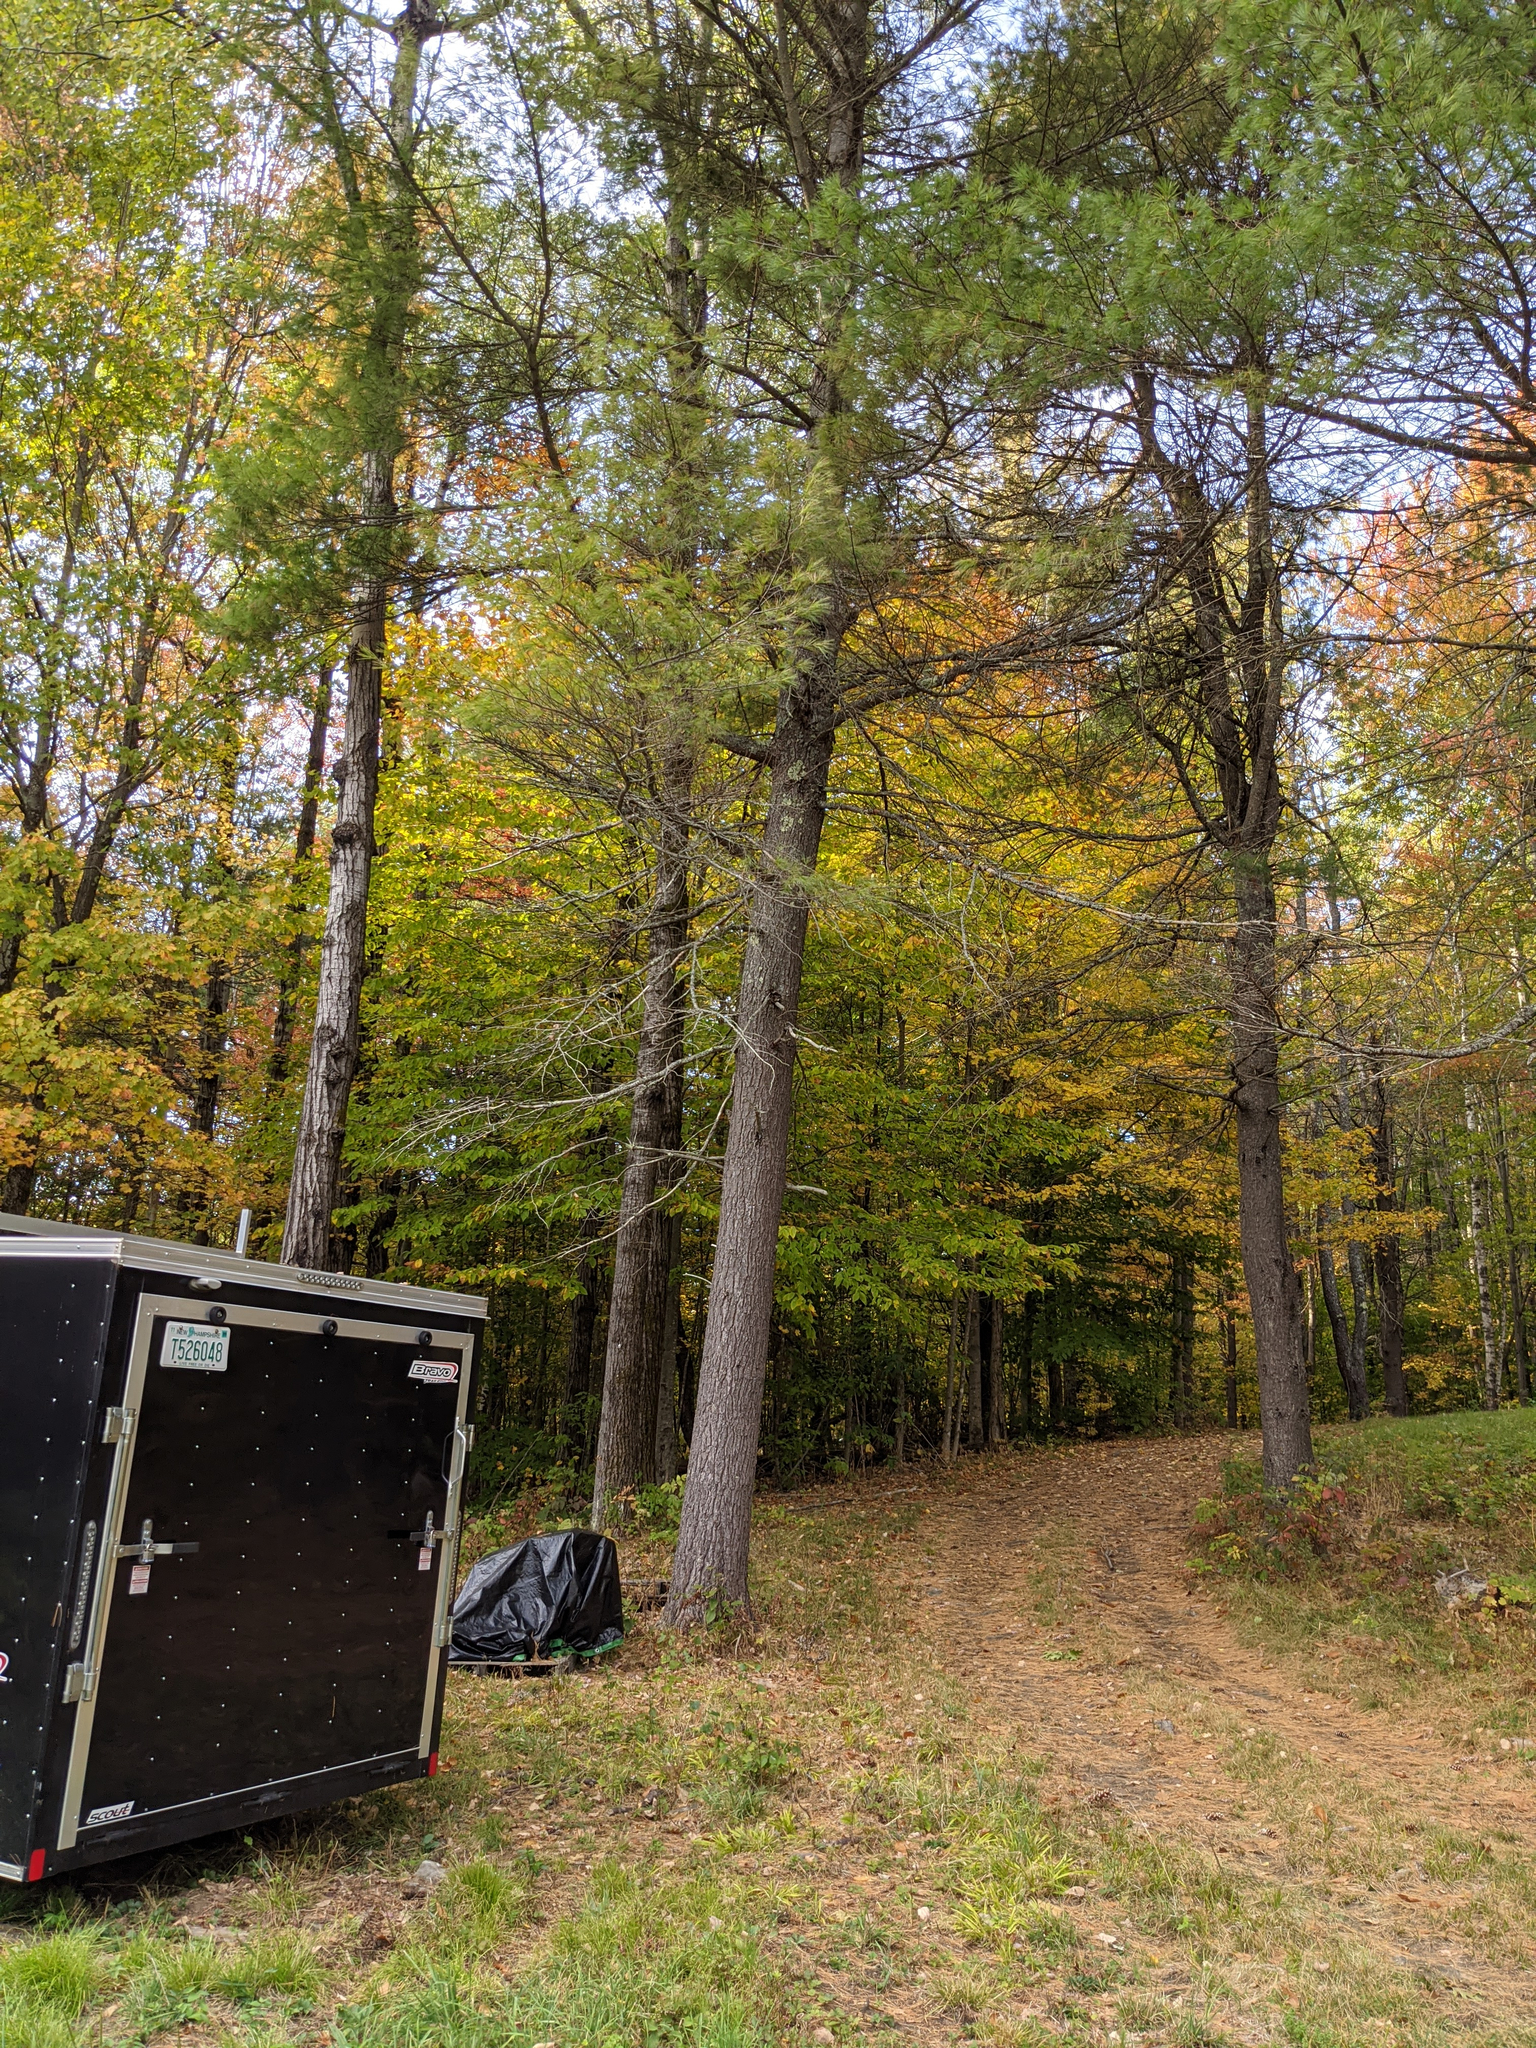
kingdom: Plantae
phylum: Tracheophyta
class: Pinopsida
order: Pinales
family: Pinaceae
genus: Pinus
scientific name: Pinus strobus
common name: Weymouth pine
